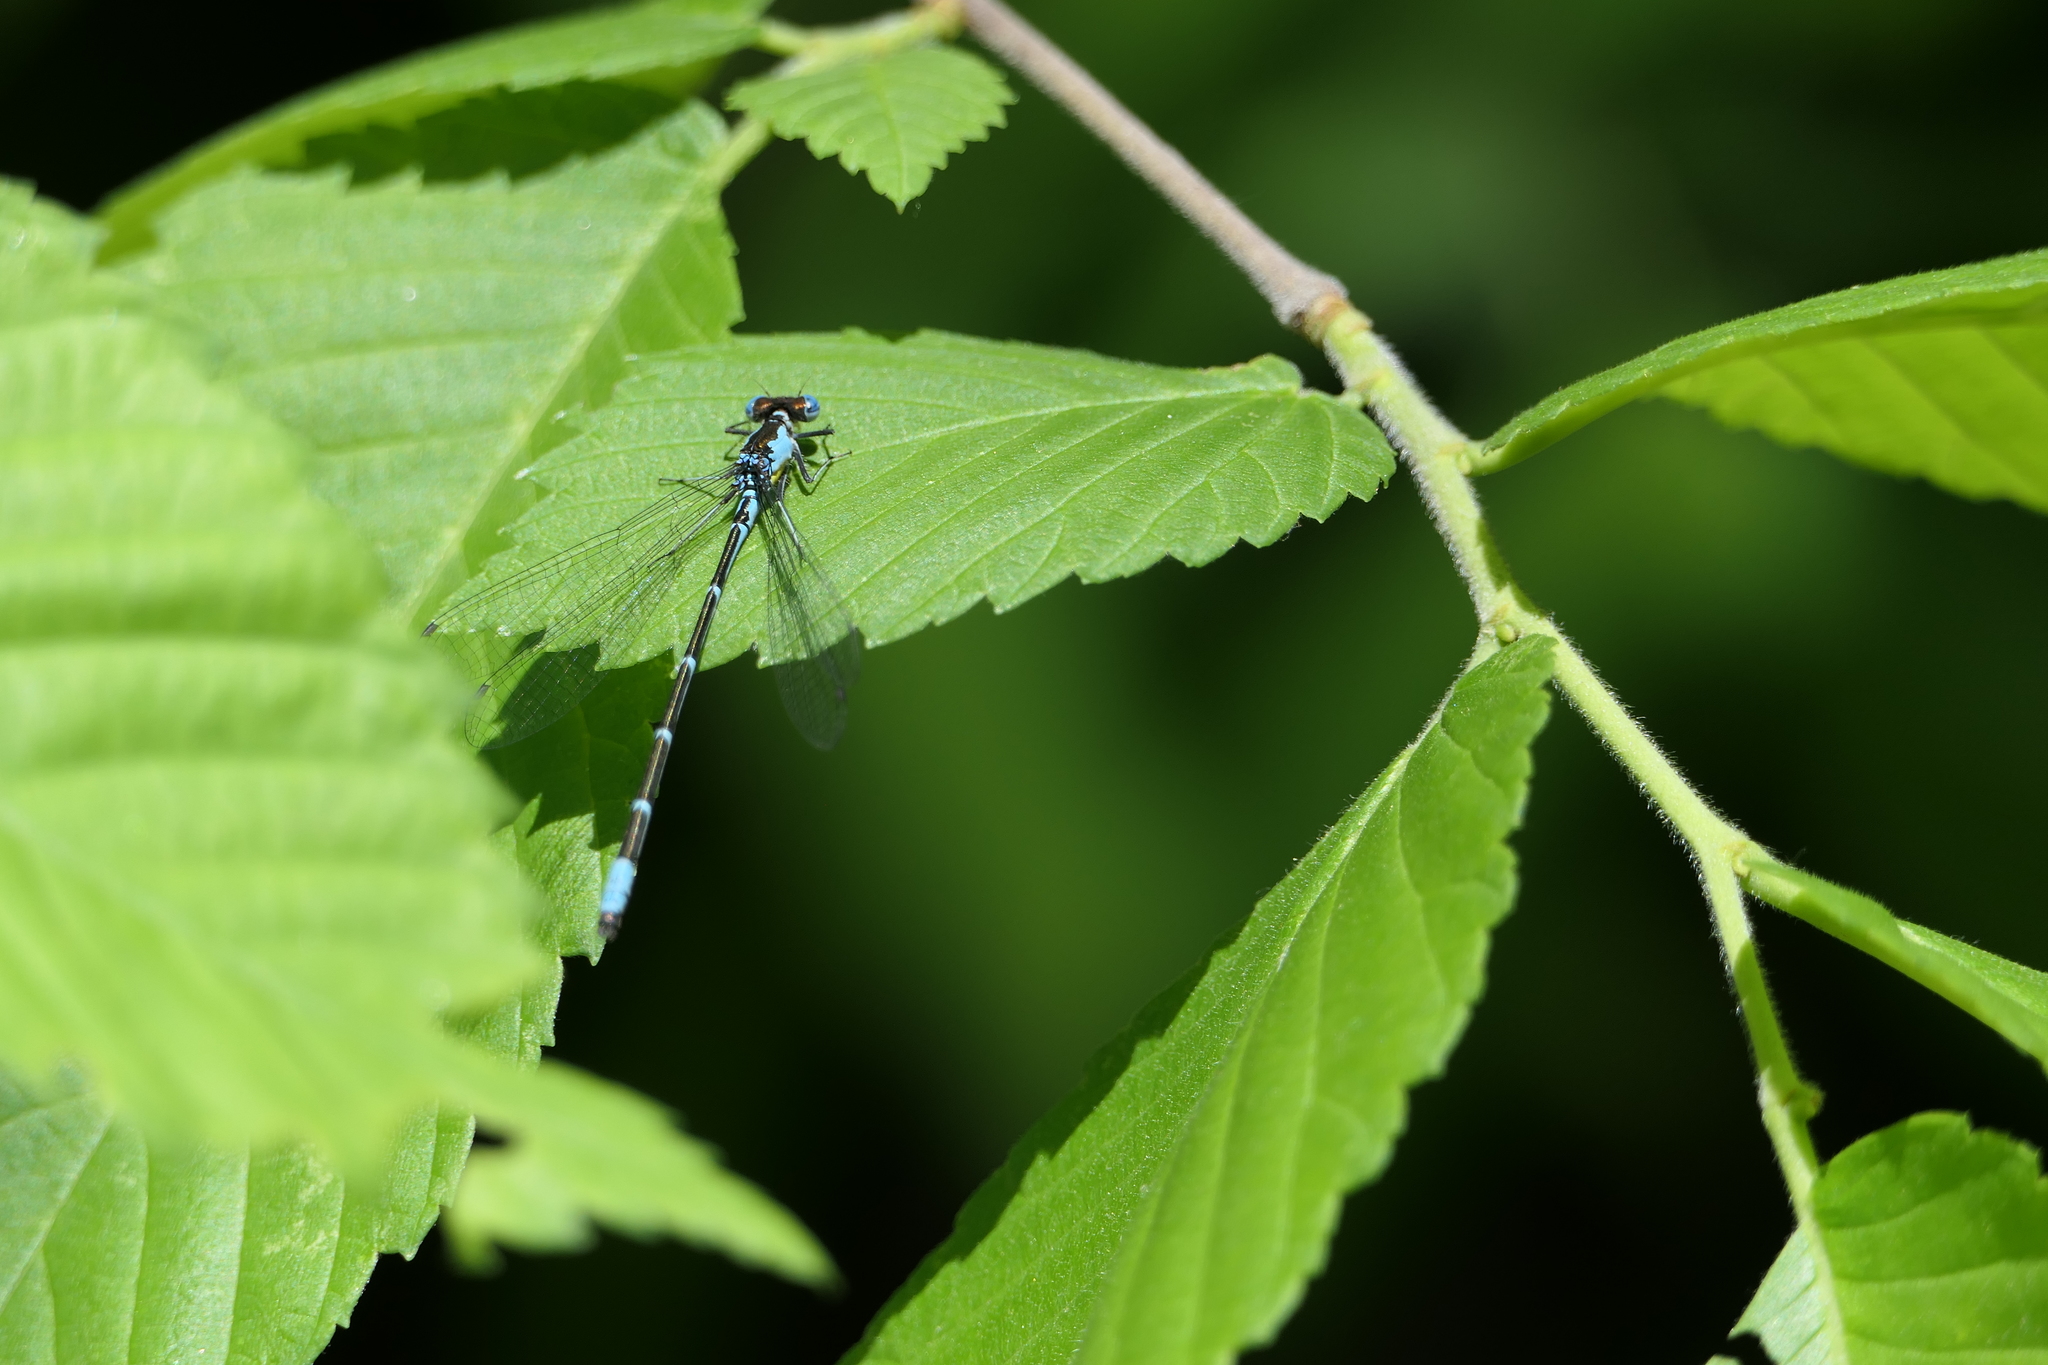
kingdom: Animalia
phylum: Arthropoda
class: Insecta
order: Odonata
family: Coenagrionidae
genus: Chromagrion
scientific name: Chromagrion conditum
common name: Aurora damsel
